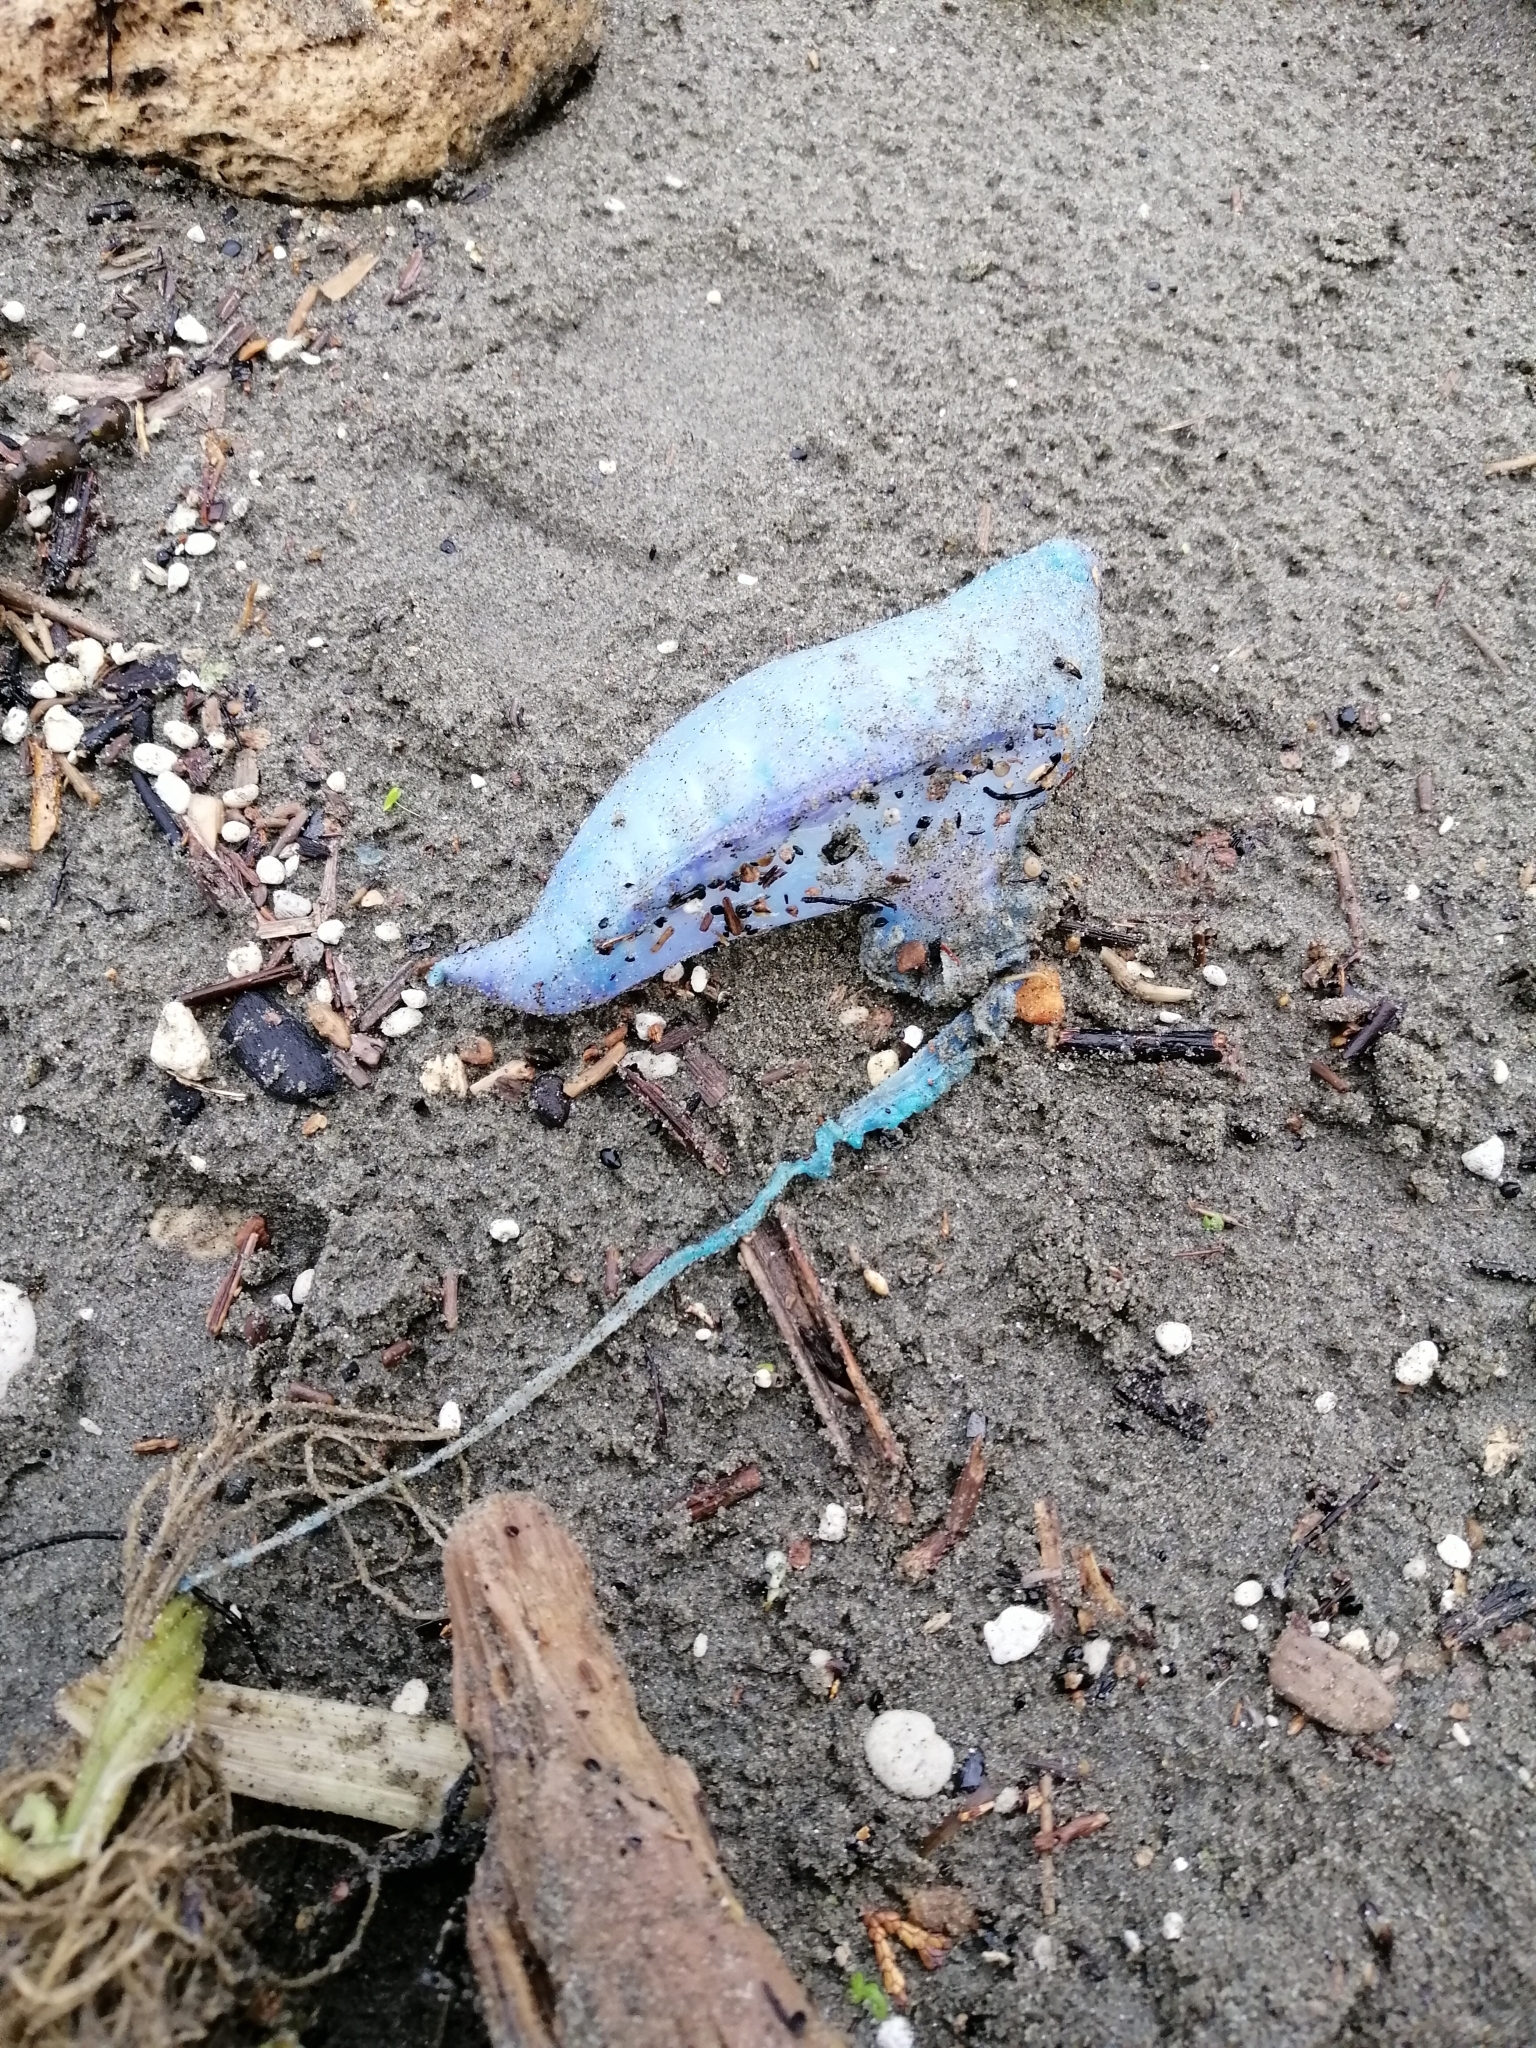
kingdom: Animalia
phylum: Cnidaria
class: Hydrozoa
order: Siphonophorae
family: Physaliidae
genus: Physalia
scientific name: Physalia physalis
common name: Portuguese man-of-war
